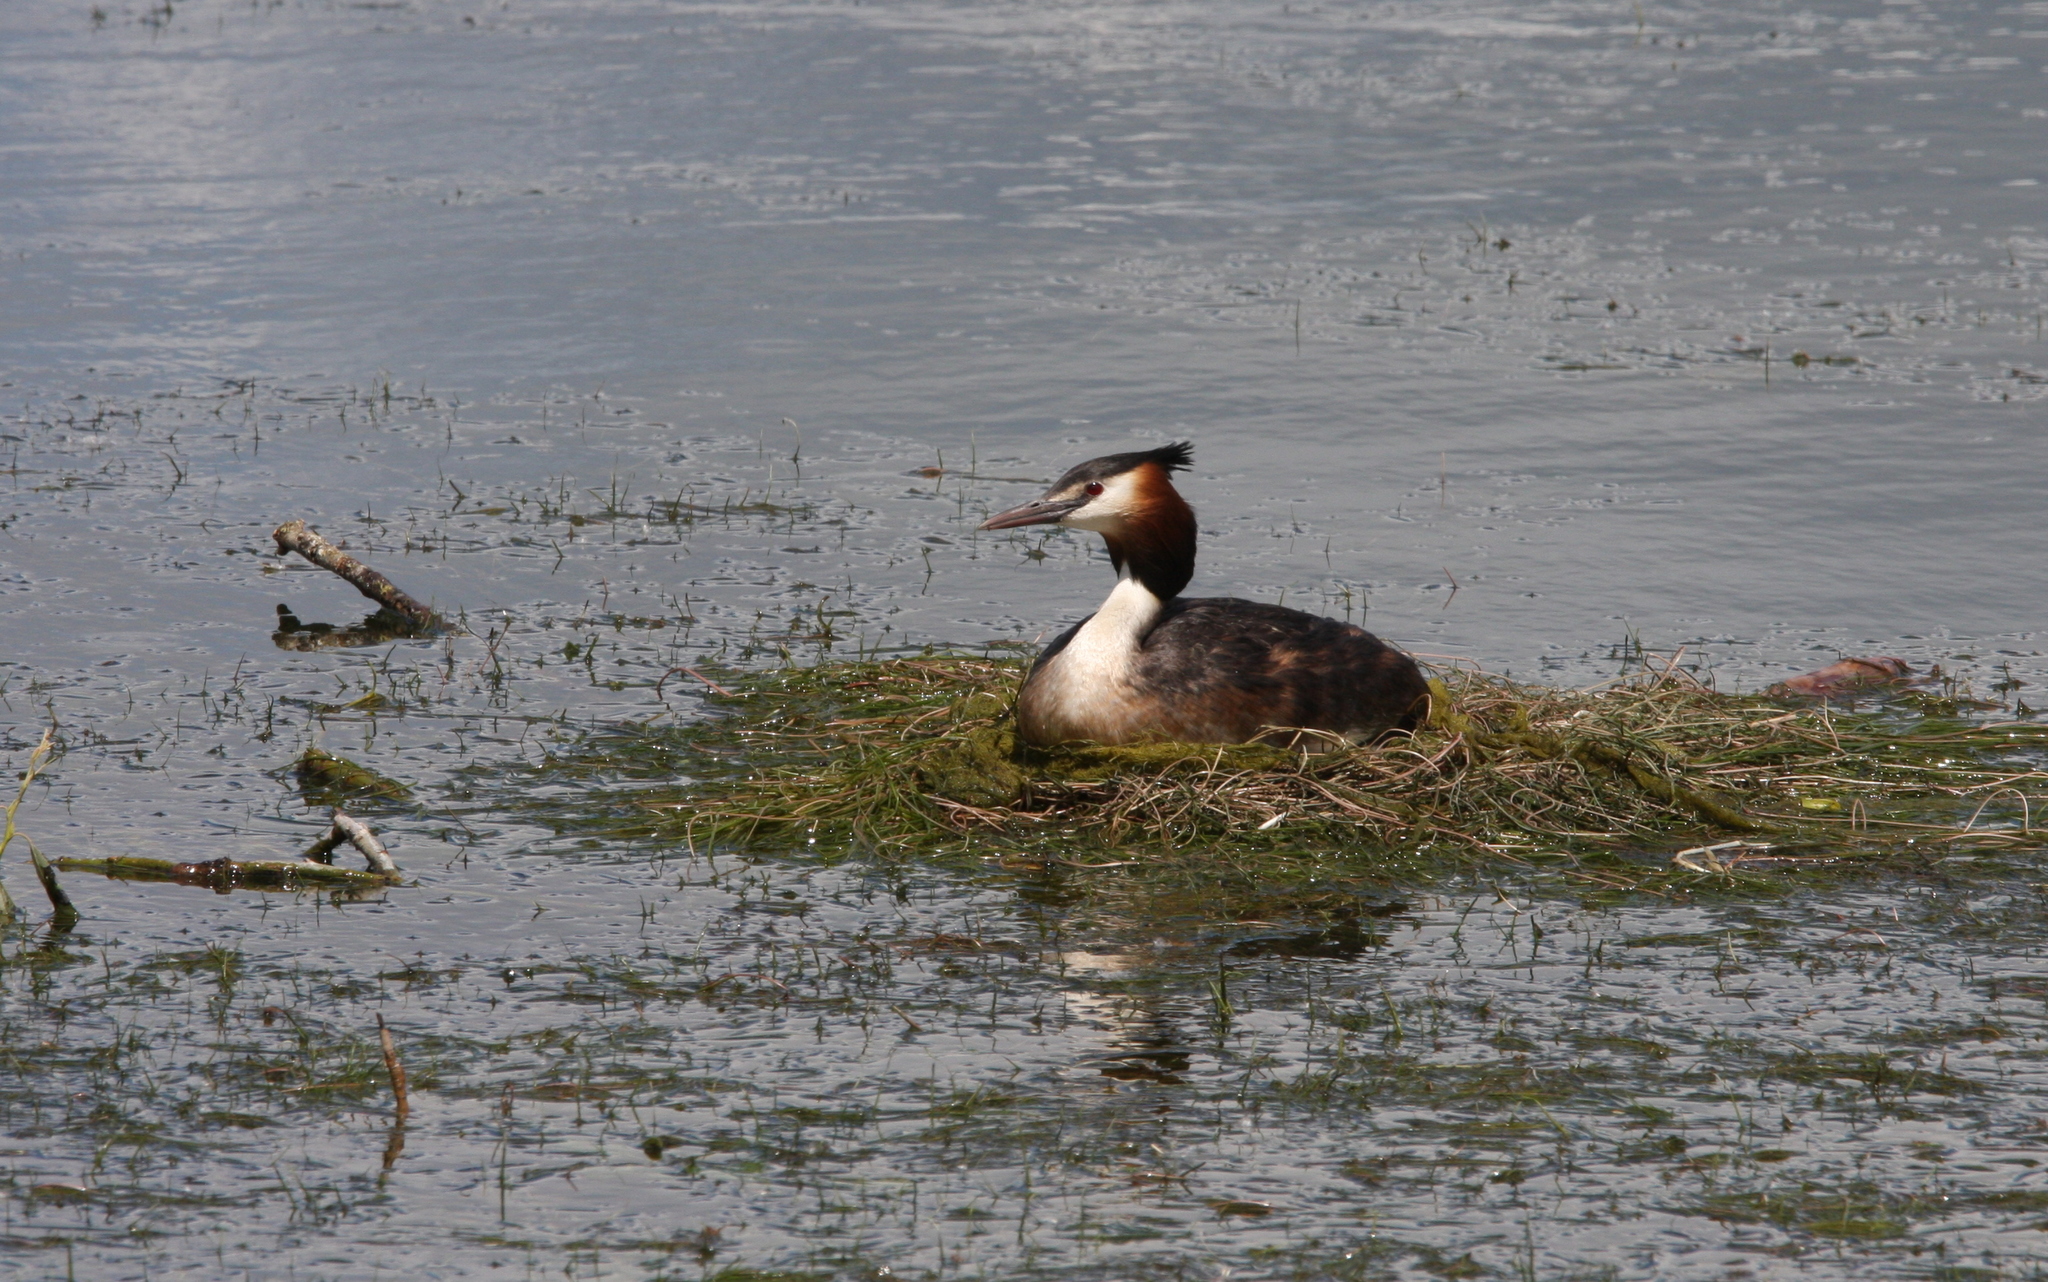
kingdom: Animalia
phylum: Chordata
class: Aves
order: Podicipediformes
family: Podicipedidae
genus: Podiceps
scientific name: Podiceps cristatus
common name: Great crested grebe
